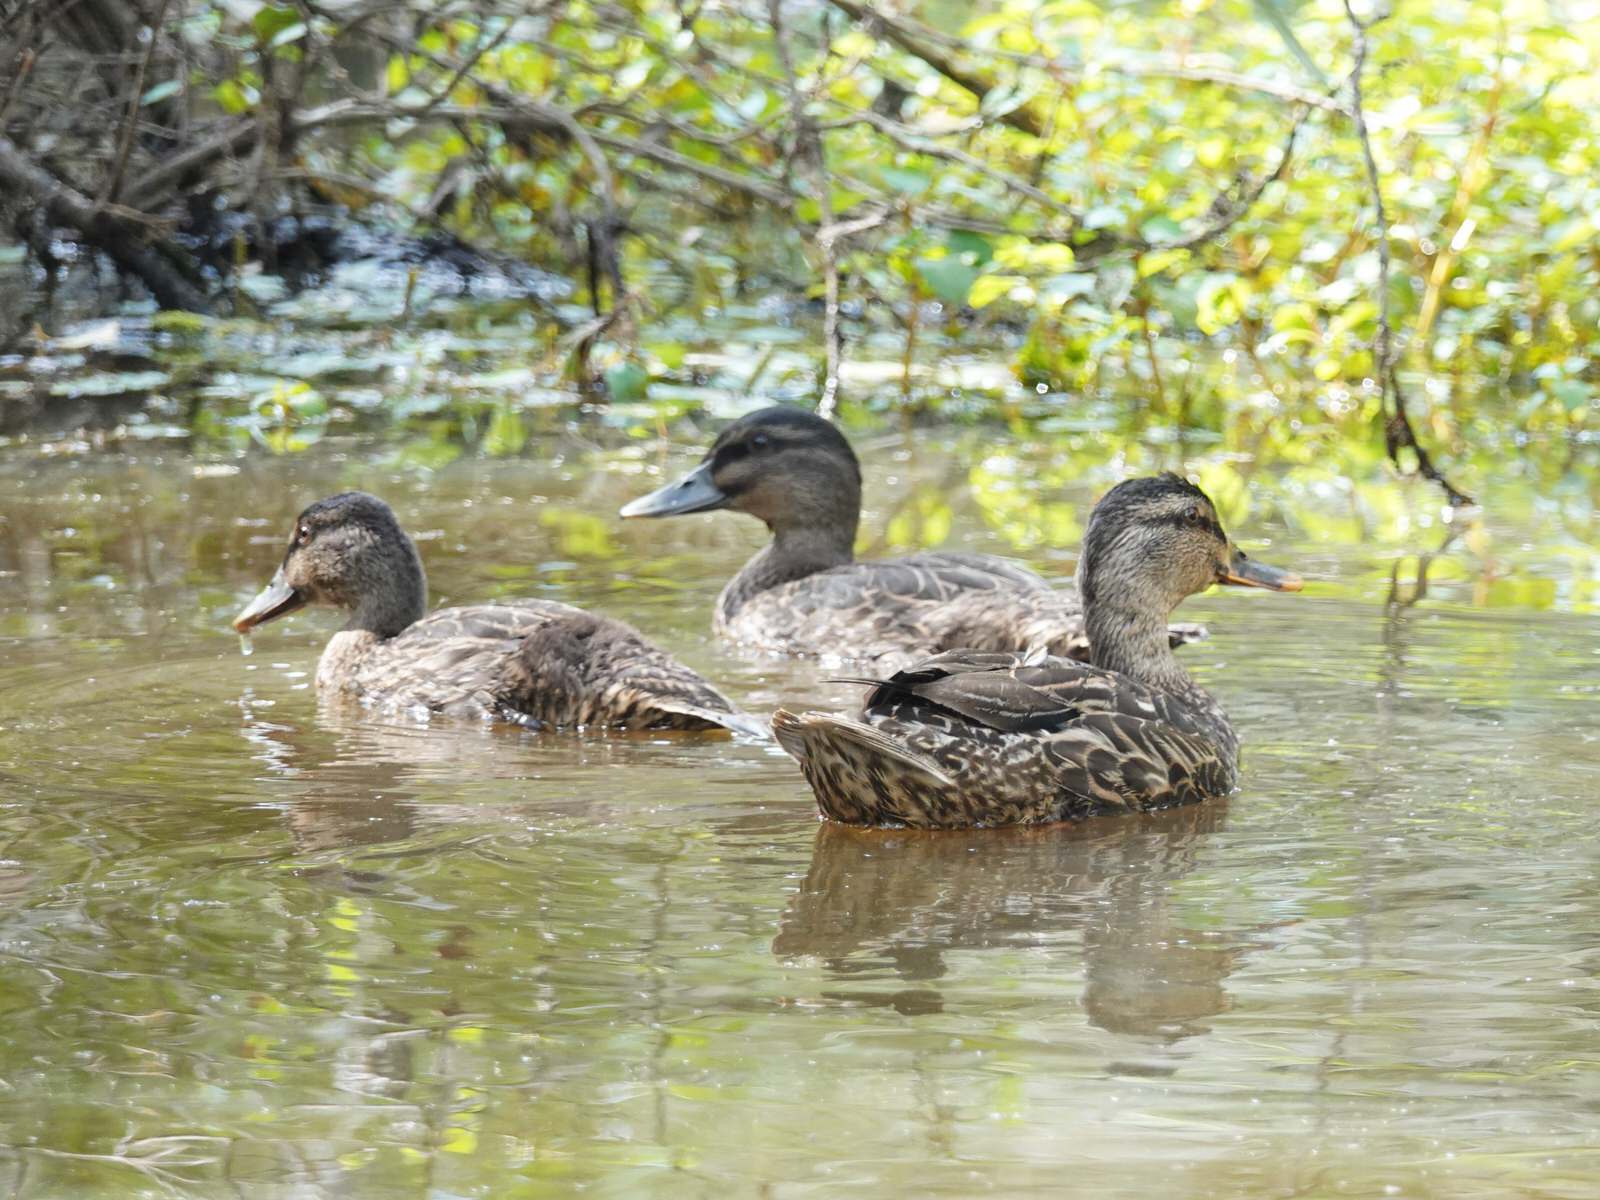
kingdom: Animalia
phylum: Chordata
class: Aves
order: Anseriformes
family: Anatidae
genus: Anas
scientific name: Anas
